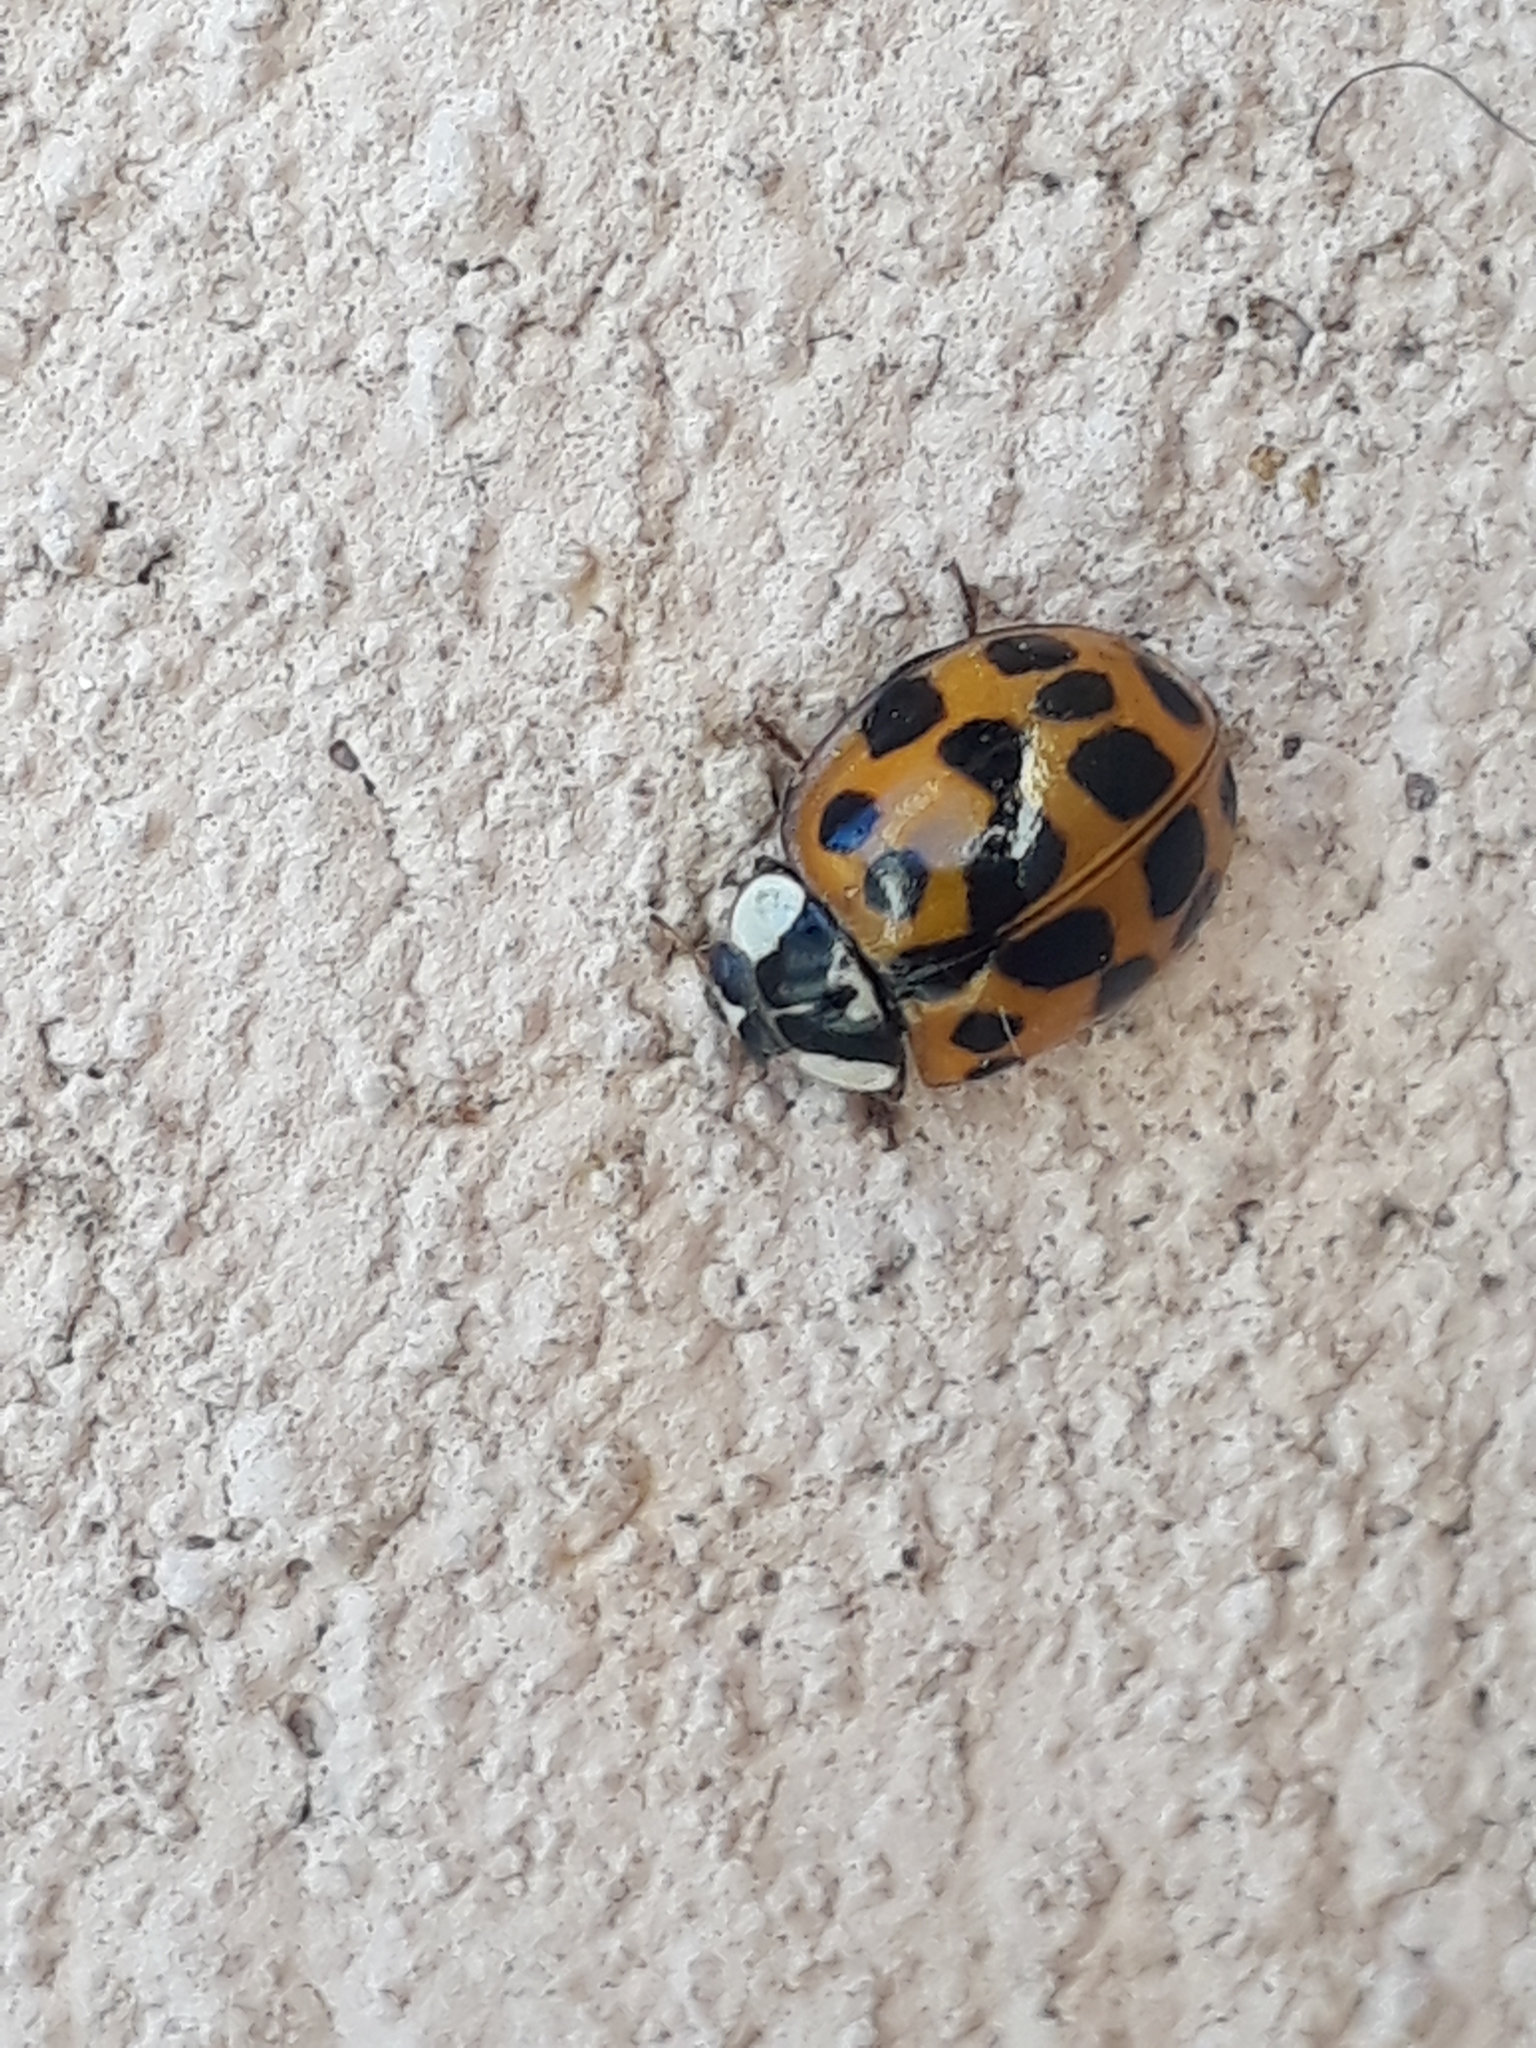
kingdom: Animalia
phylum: Arthropoda
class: Insecta
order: Coleoptera
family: Coccinellidae
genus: Harmonia
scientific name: Harmonia axyridis
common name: Harlequin ladybird
